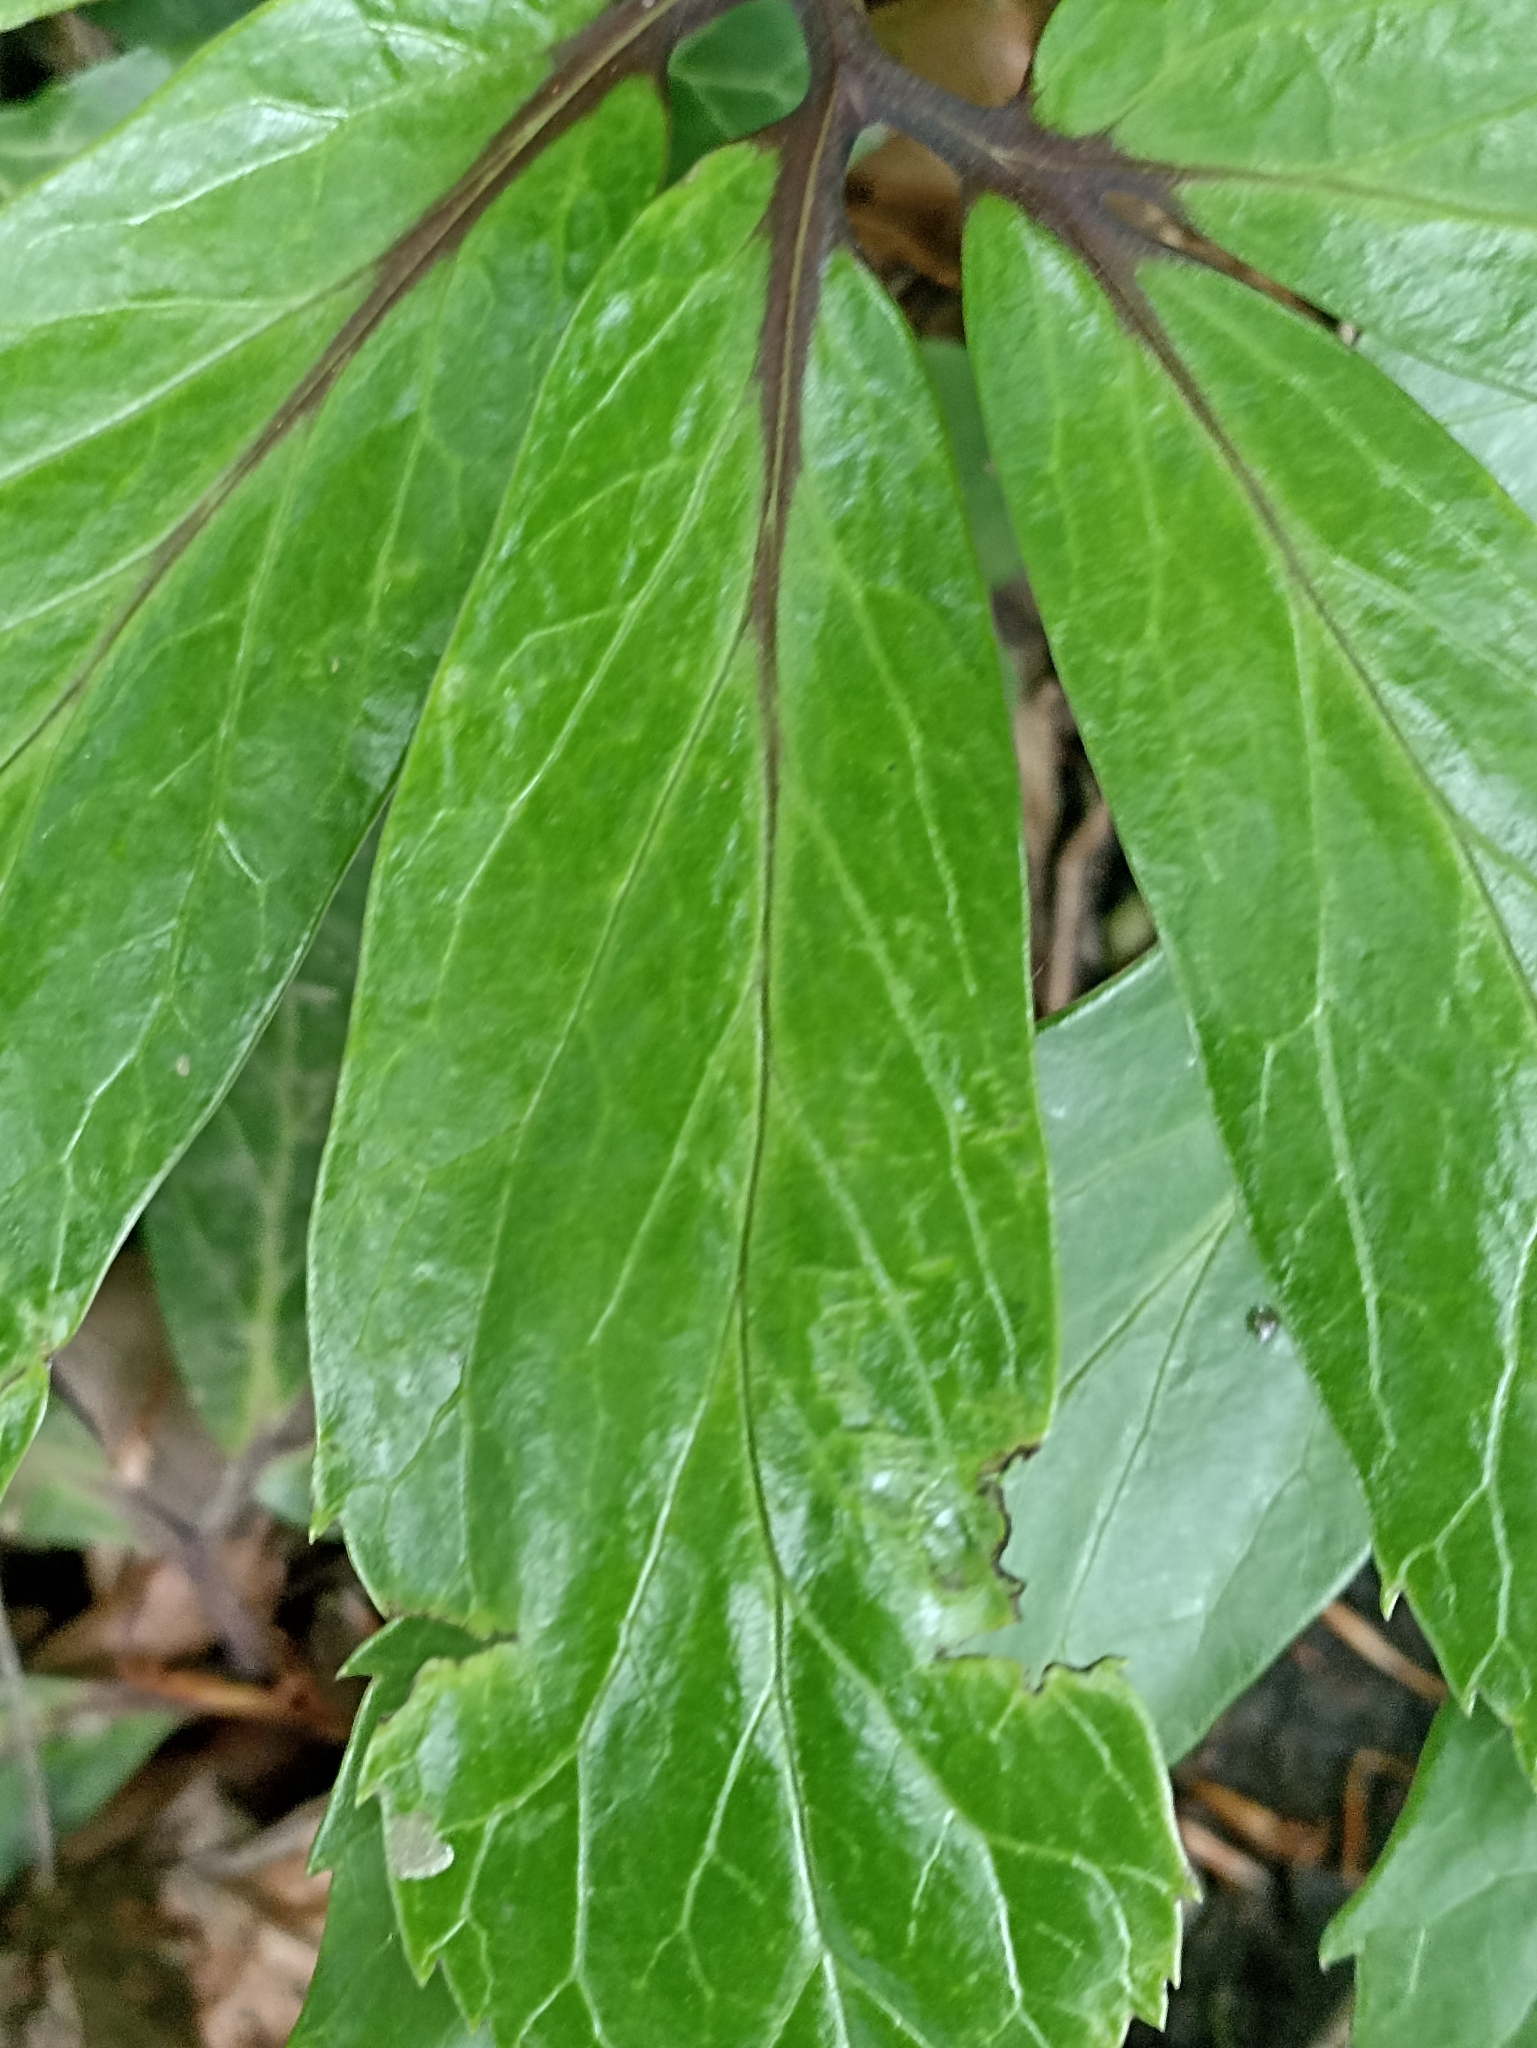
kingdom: Plantae
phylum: Tracheophyta
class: Magnoliopsida
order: Ranunculales
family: Ranunculaceae
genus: Helleborus
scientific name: Helleborus niger
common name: Black hellebore
